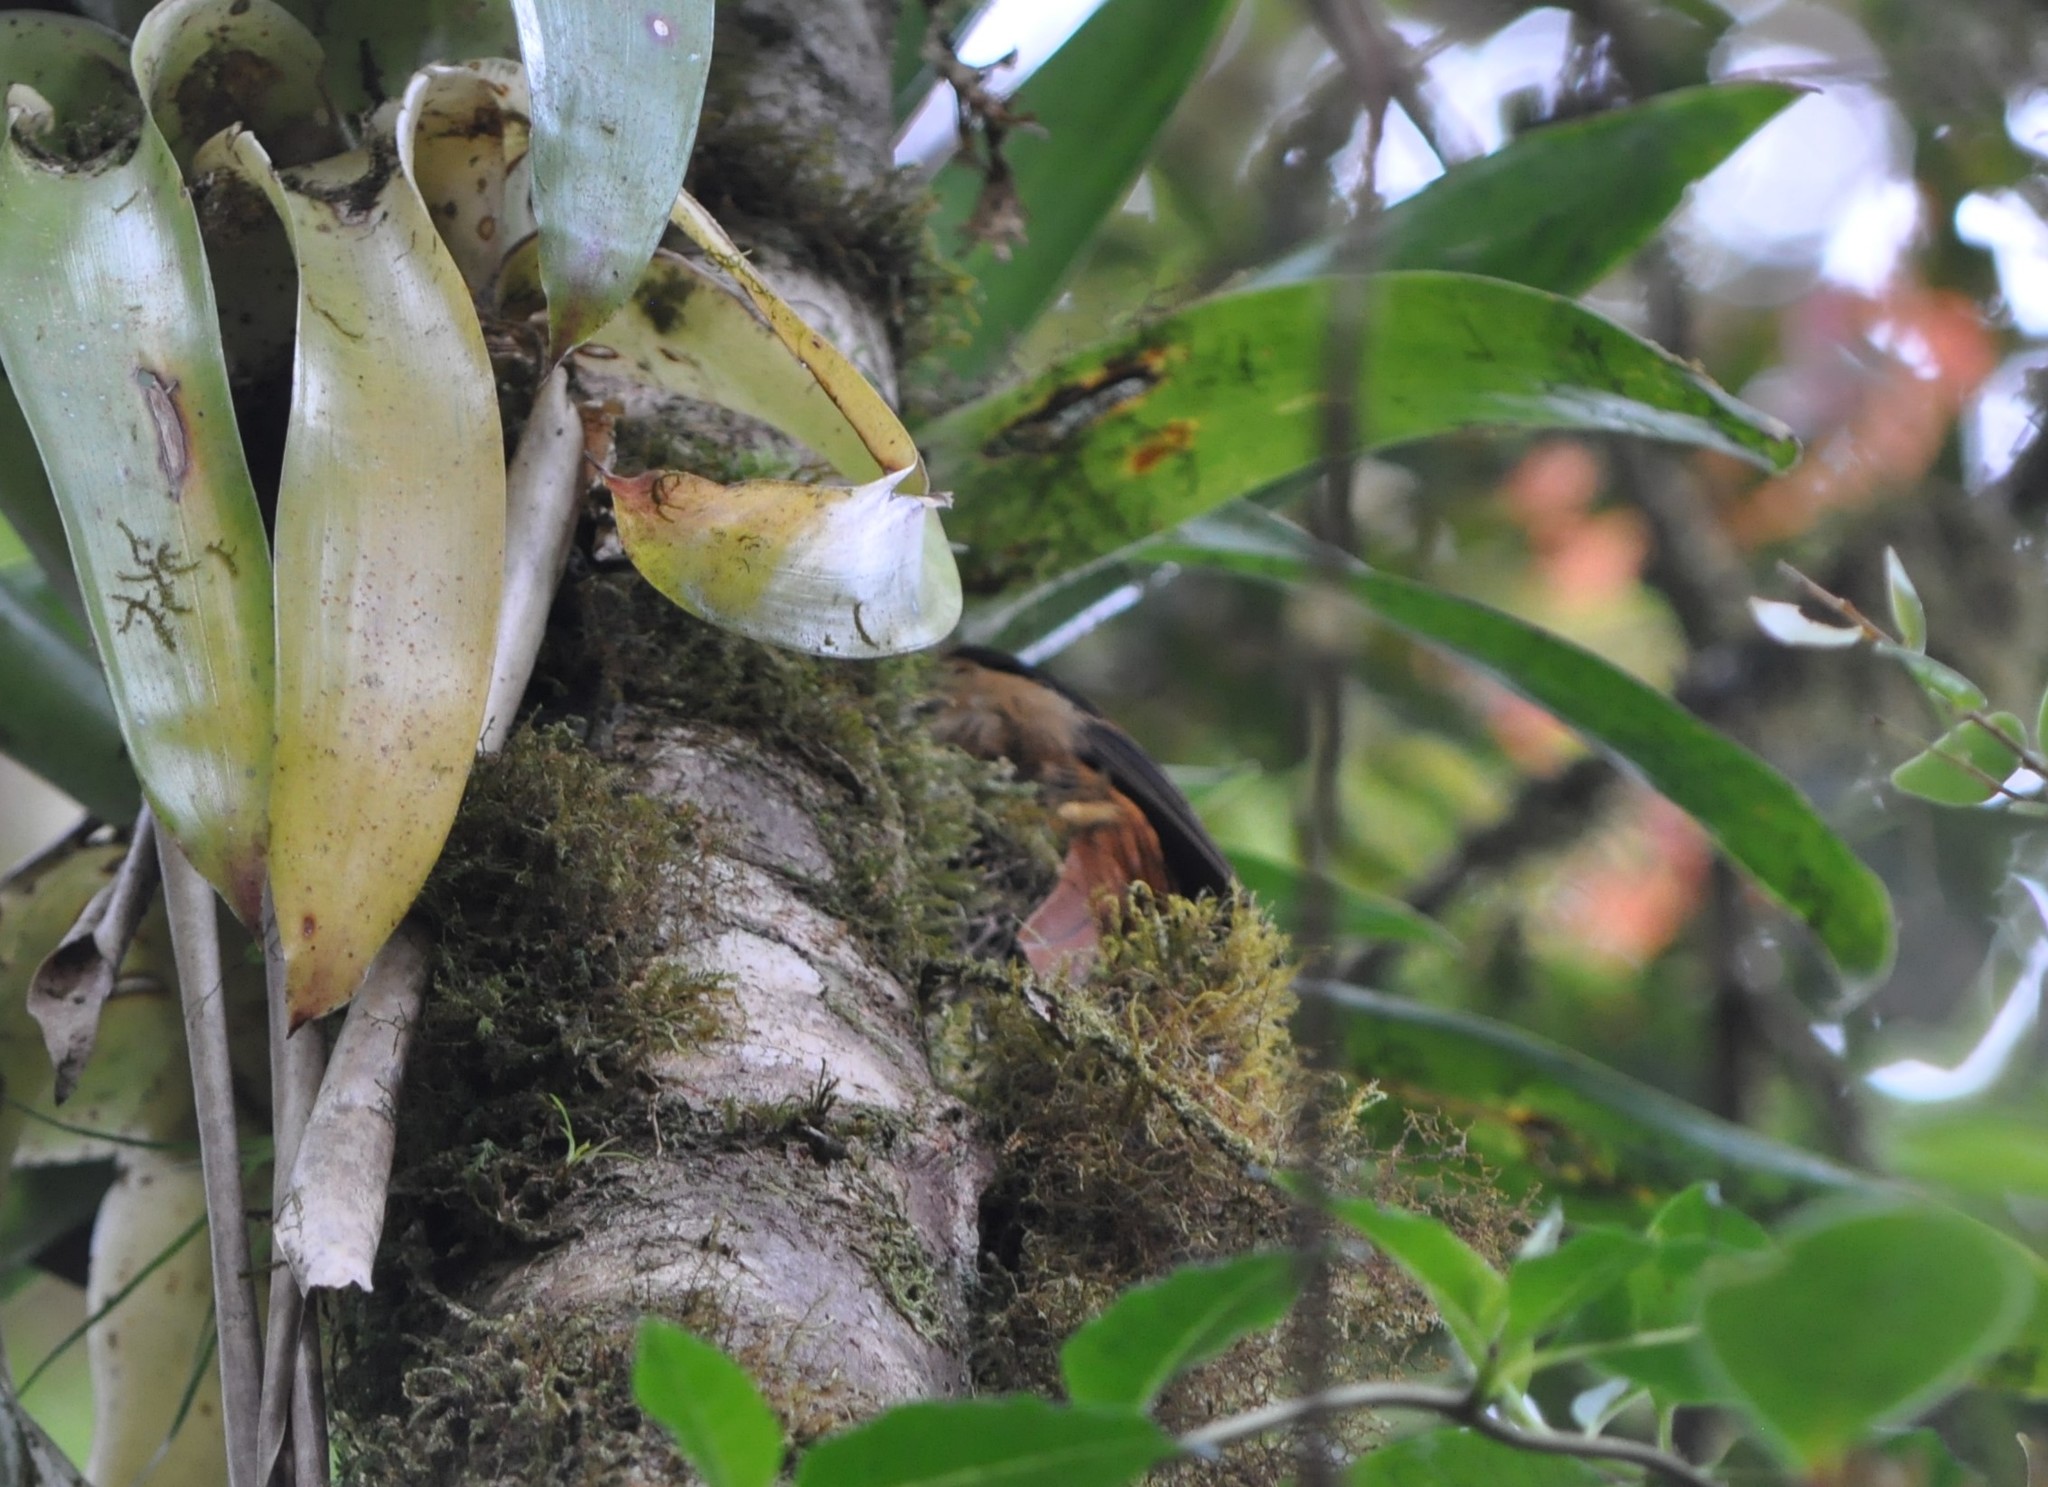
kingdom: Animalia
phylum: Chordata
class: Aves
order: Passeriformes
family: Furnariidae
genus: Pseudocolaptes
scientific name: Pseudocolaptes lawrencii
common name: Buffy tuftedcheek
